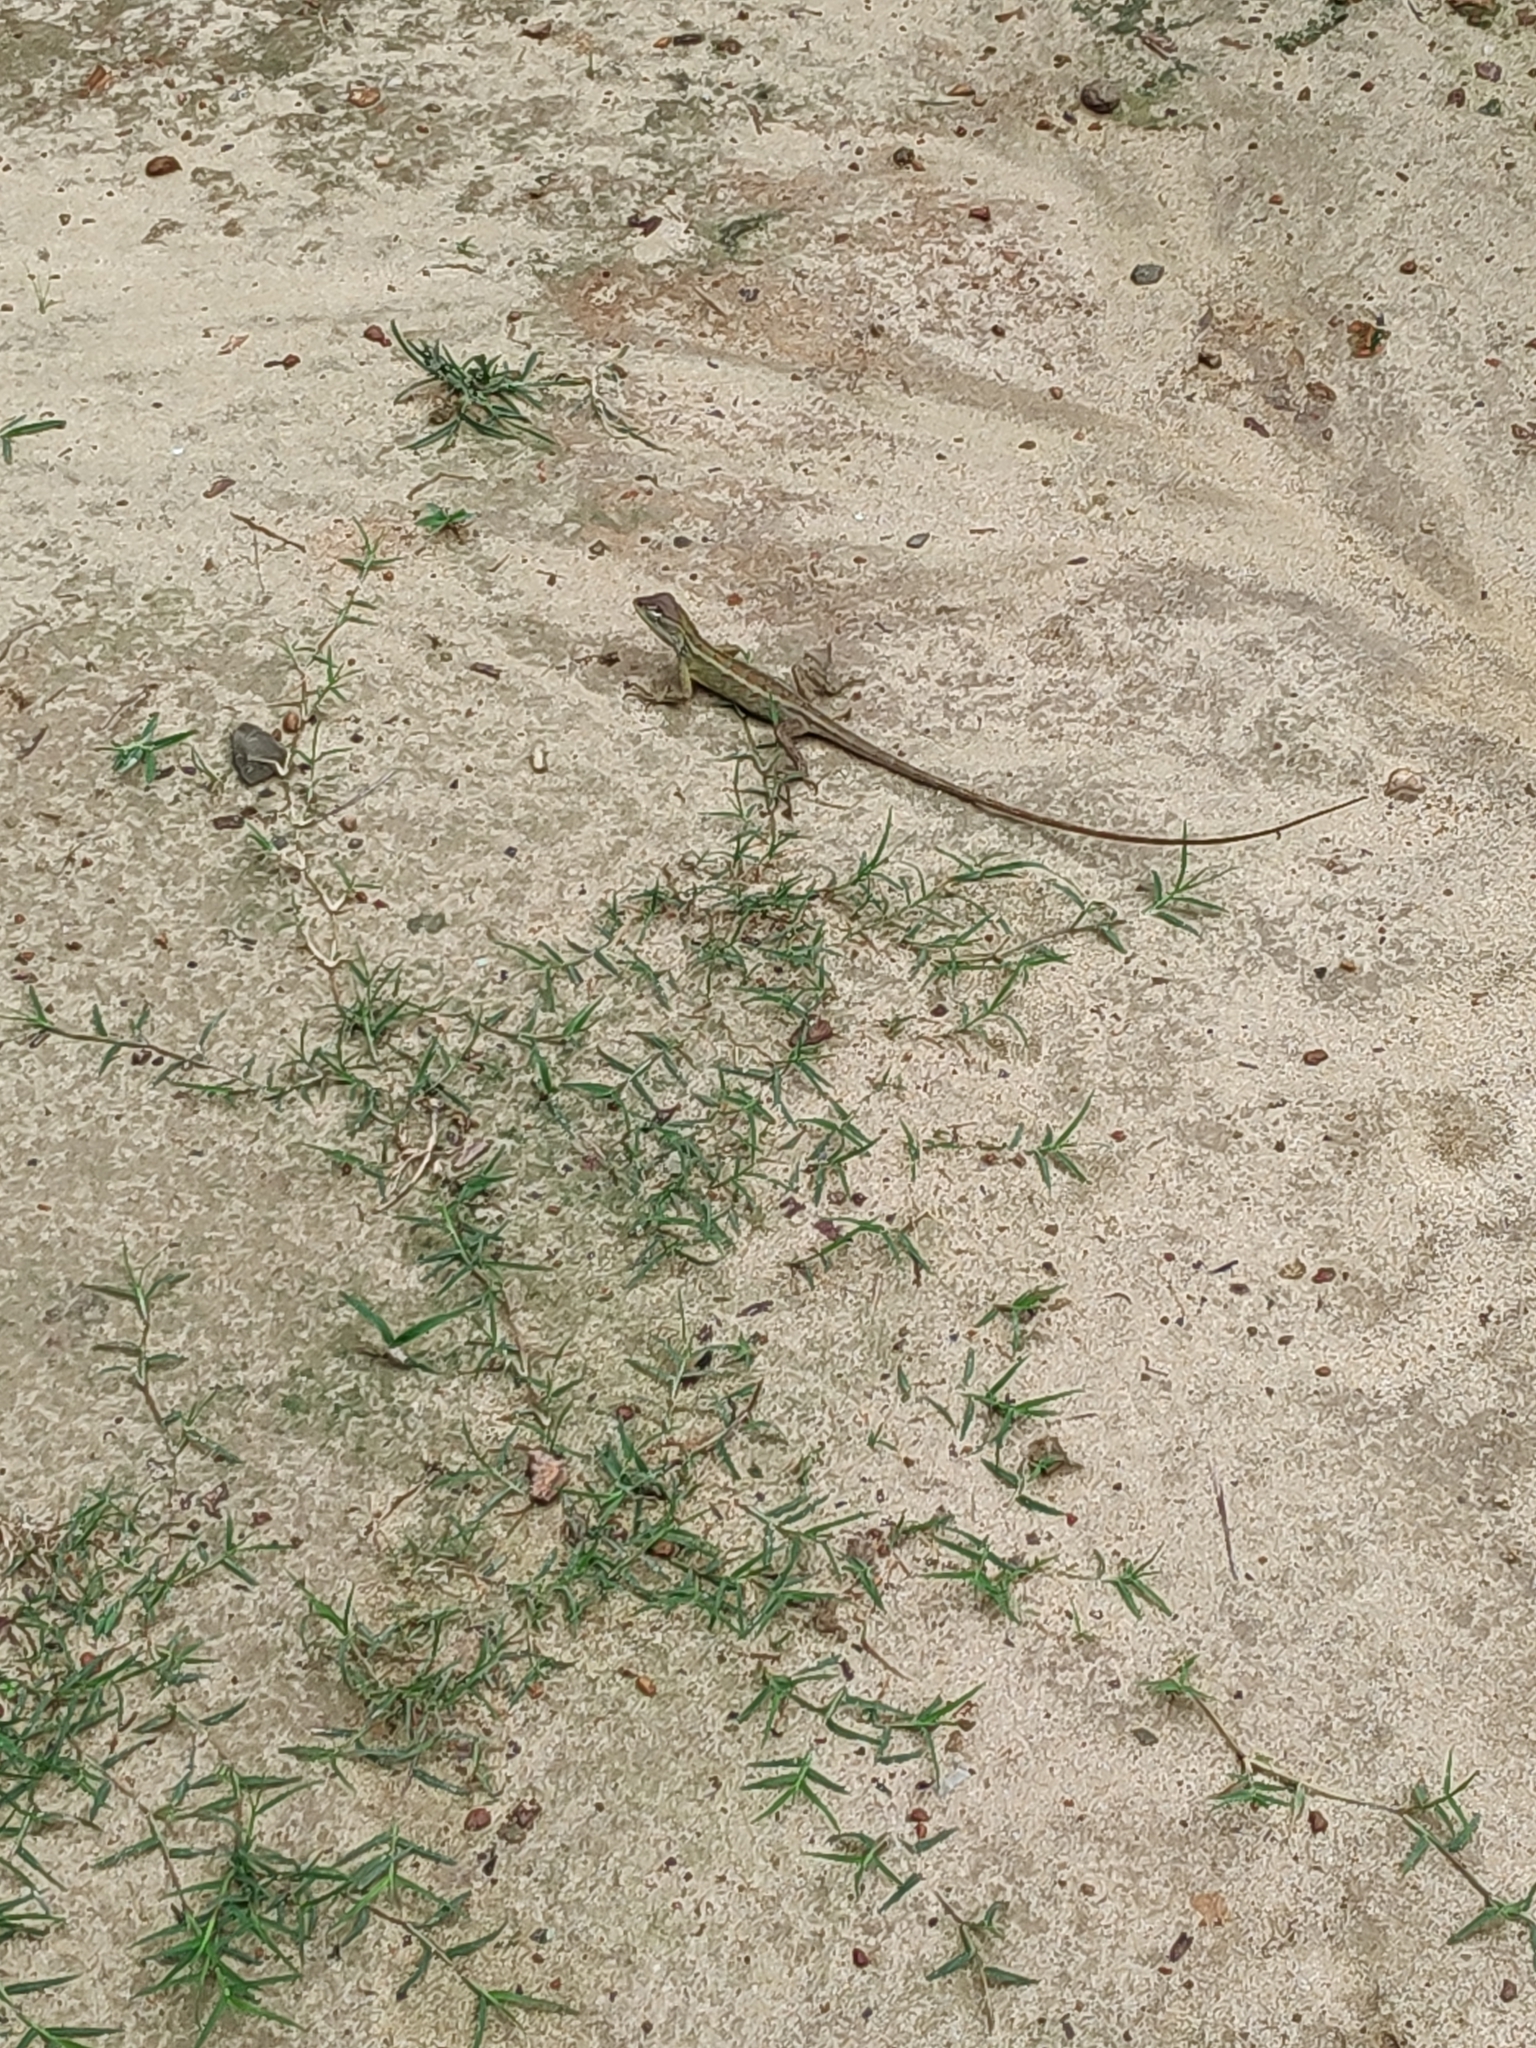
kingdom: Animalia
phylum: Chordata
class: Squamata
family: Agamidae
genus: Calotes
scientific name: Calotes versicolor
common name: Oriental garden lizard
